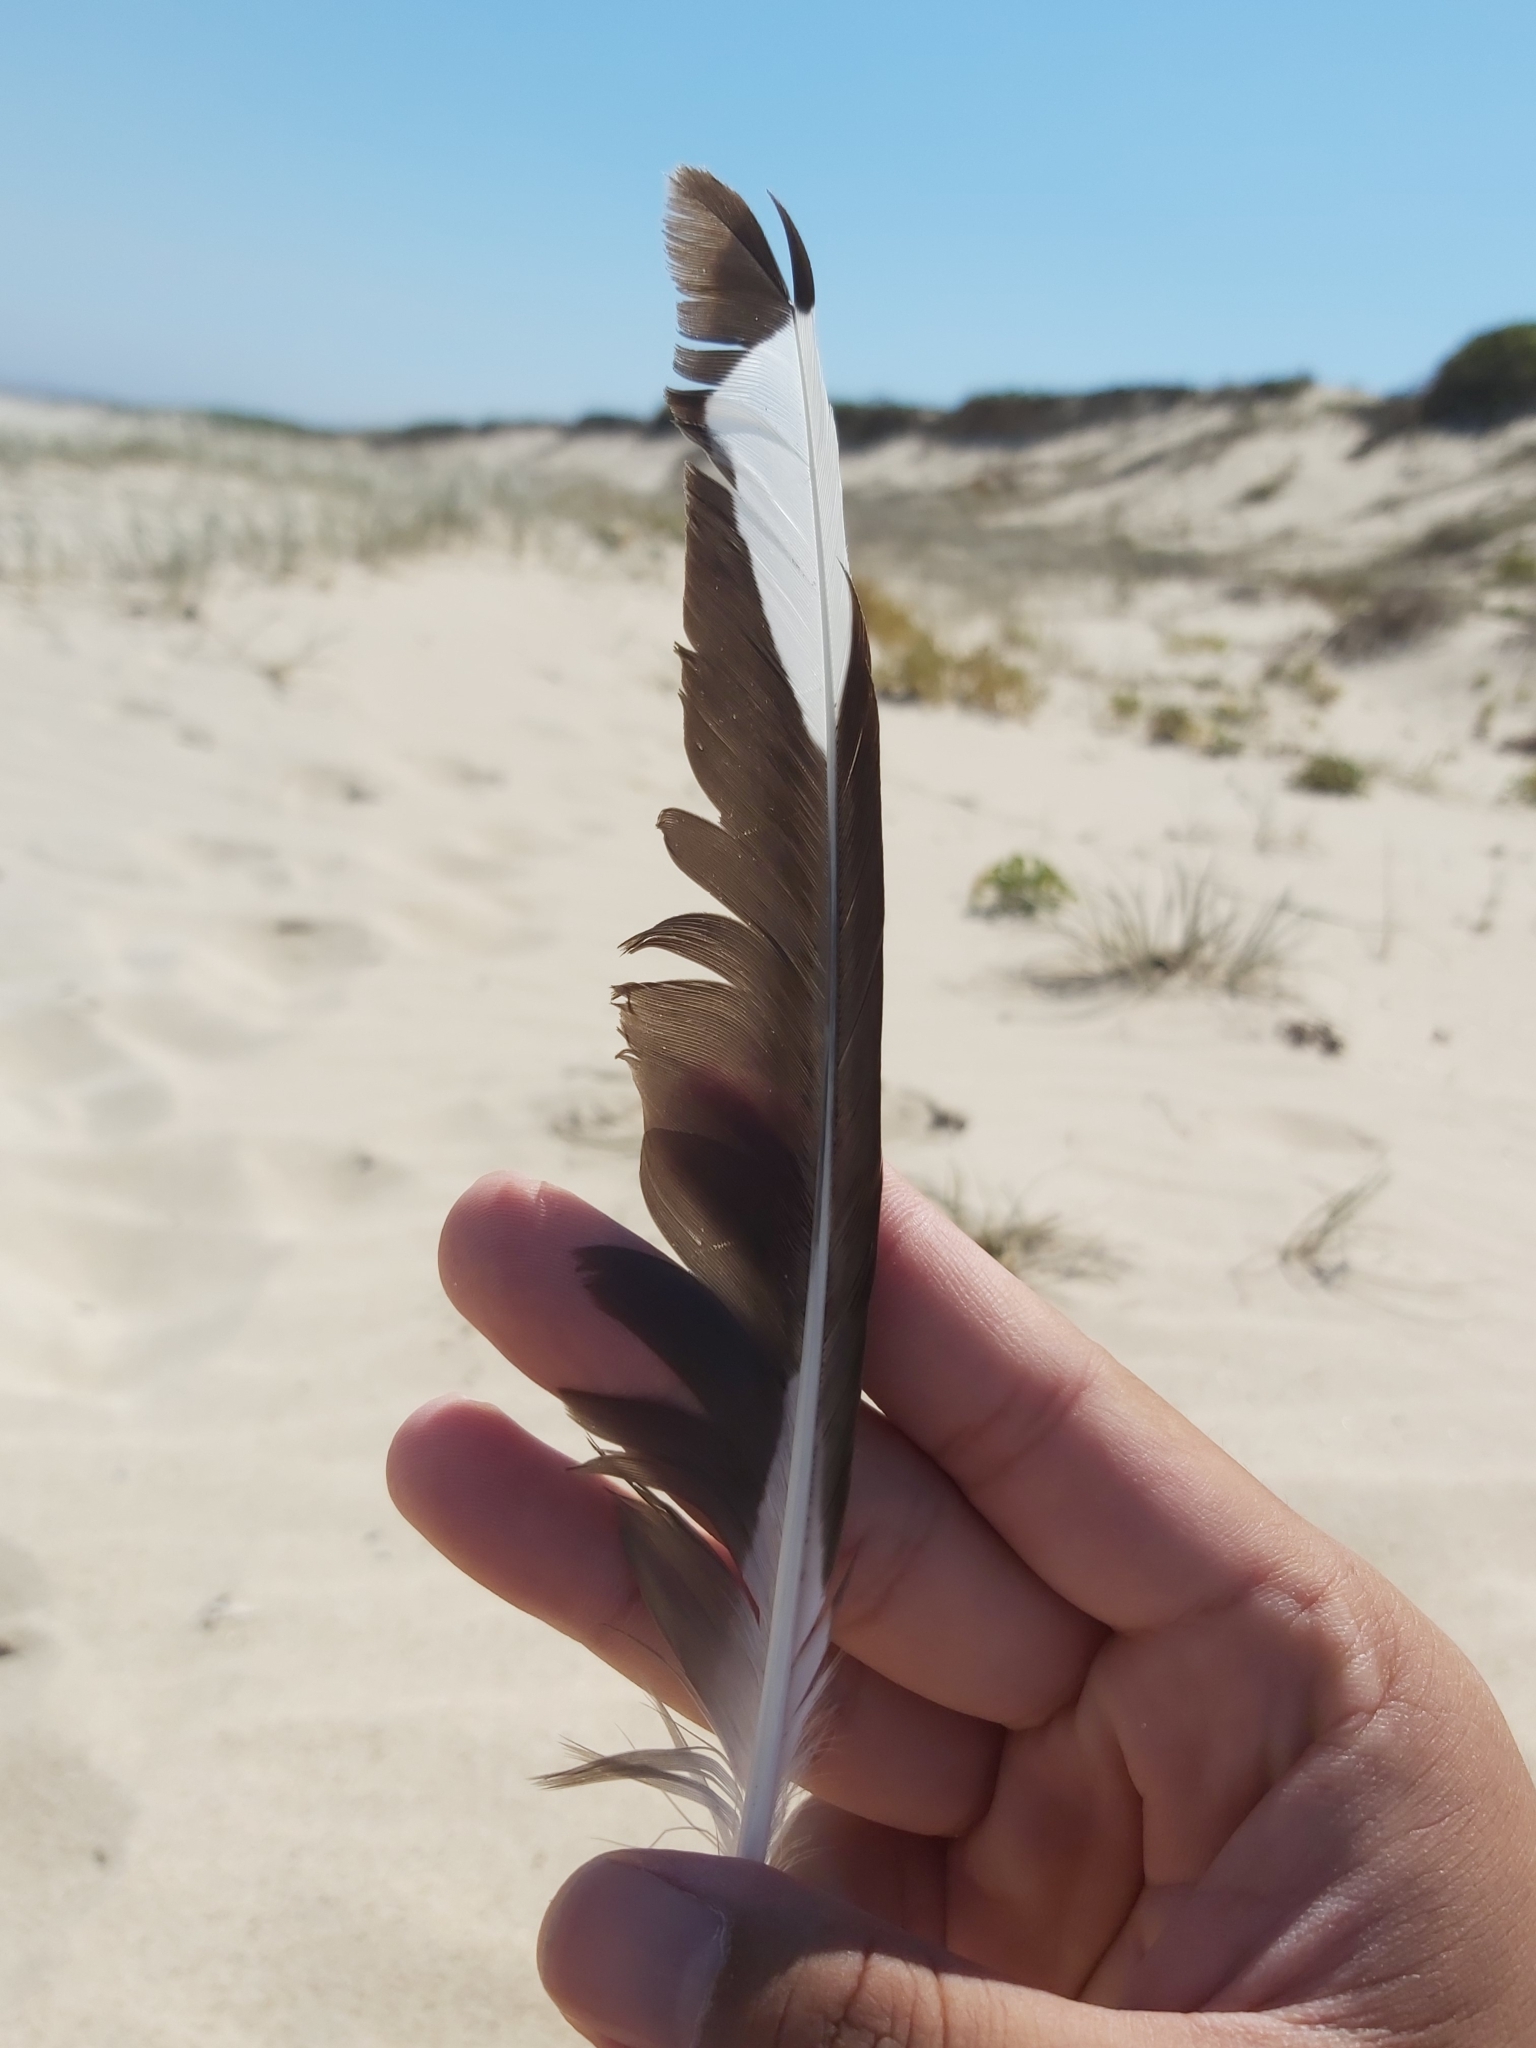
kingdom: Animalia
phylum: Chordata
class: Aves
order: Charadriiformes
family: Laridae
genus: Chroicocephalus
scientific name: Chroicocephalus novaehollandiae
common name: Silver gull
